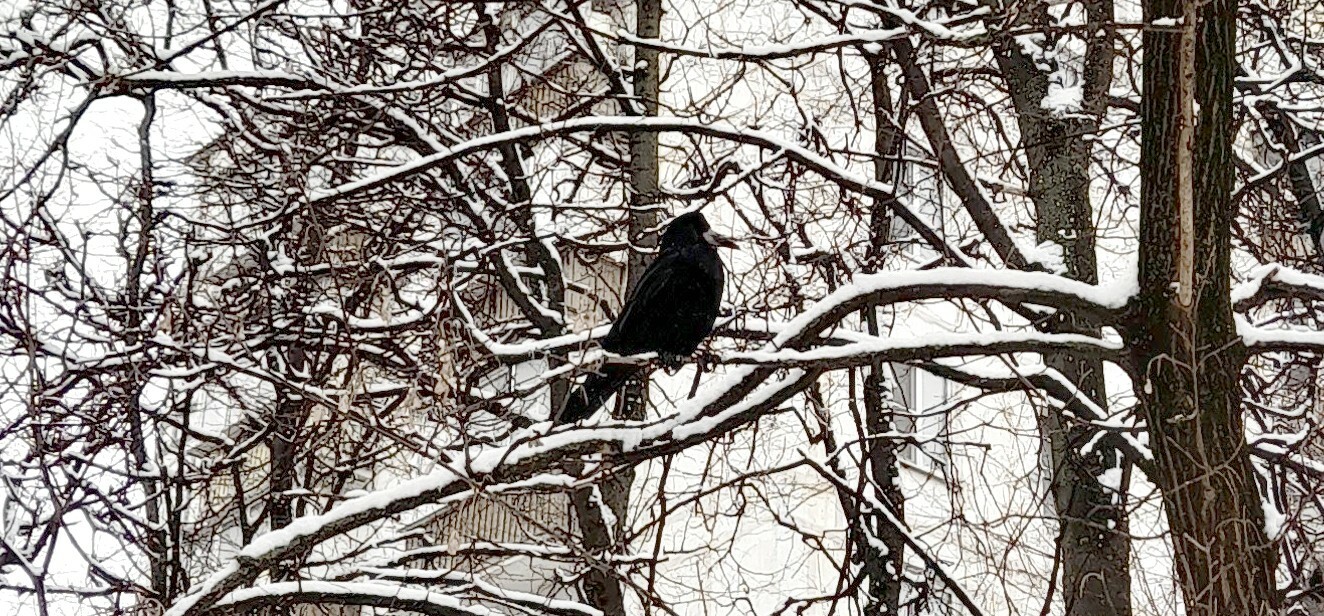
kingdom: Animalia
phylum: Chordata
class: Aves
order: Passeriformes
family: Corvidae
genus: Corvus
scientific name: Corvus frugilegus
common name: Rook
